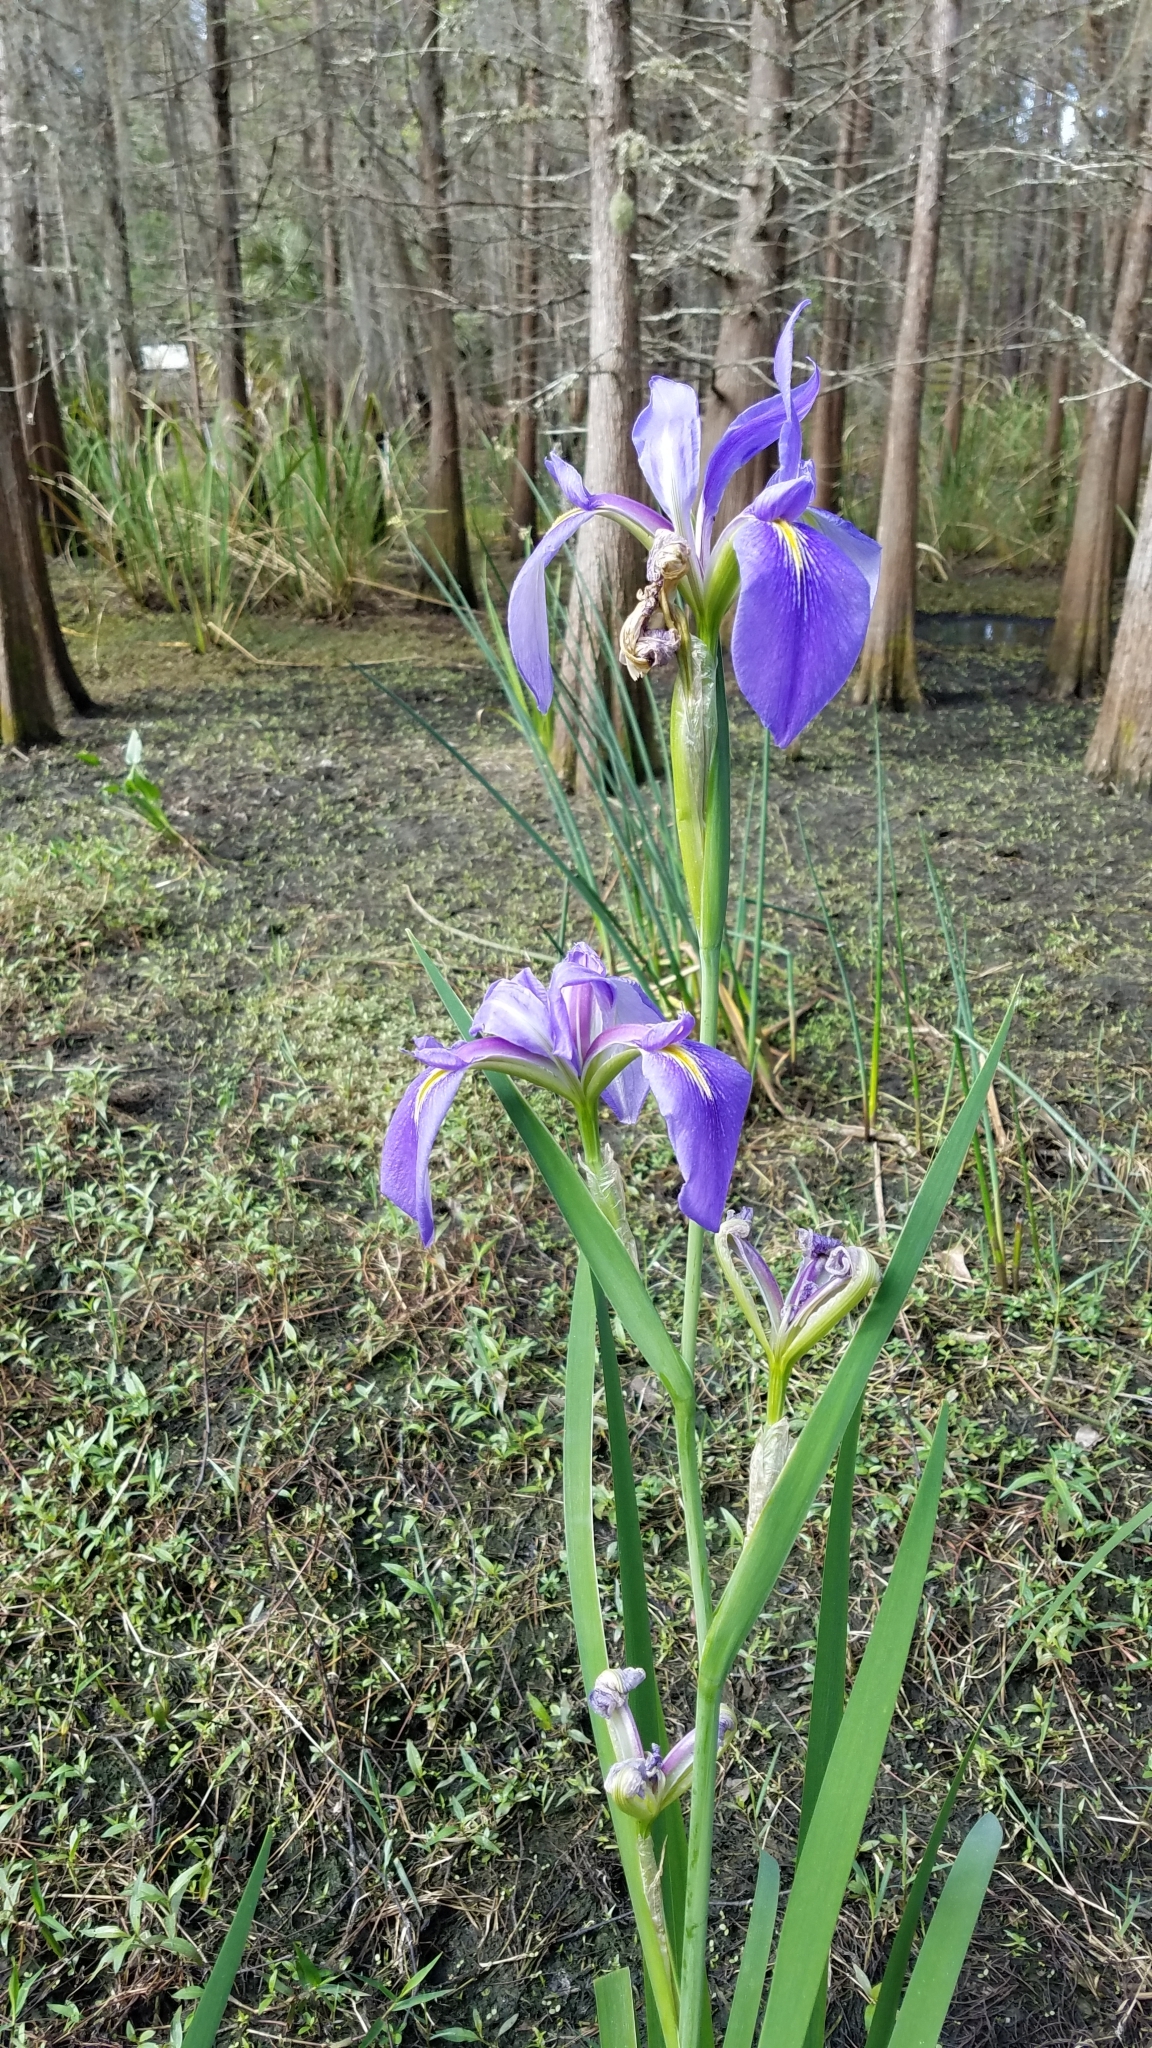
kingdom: Plantae
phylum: Tracheophyta
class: Liliopsida
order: Asparagales
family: Iridaceae
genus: Iris
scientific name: Iris hexagona
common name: Carolina iris
